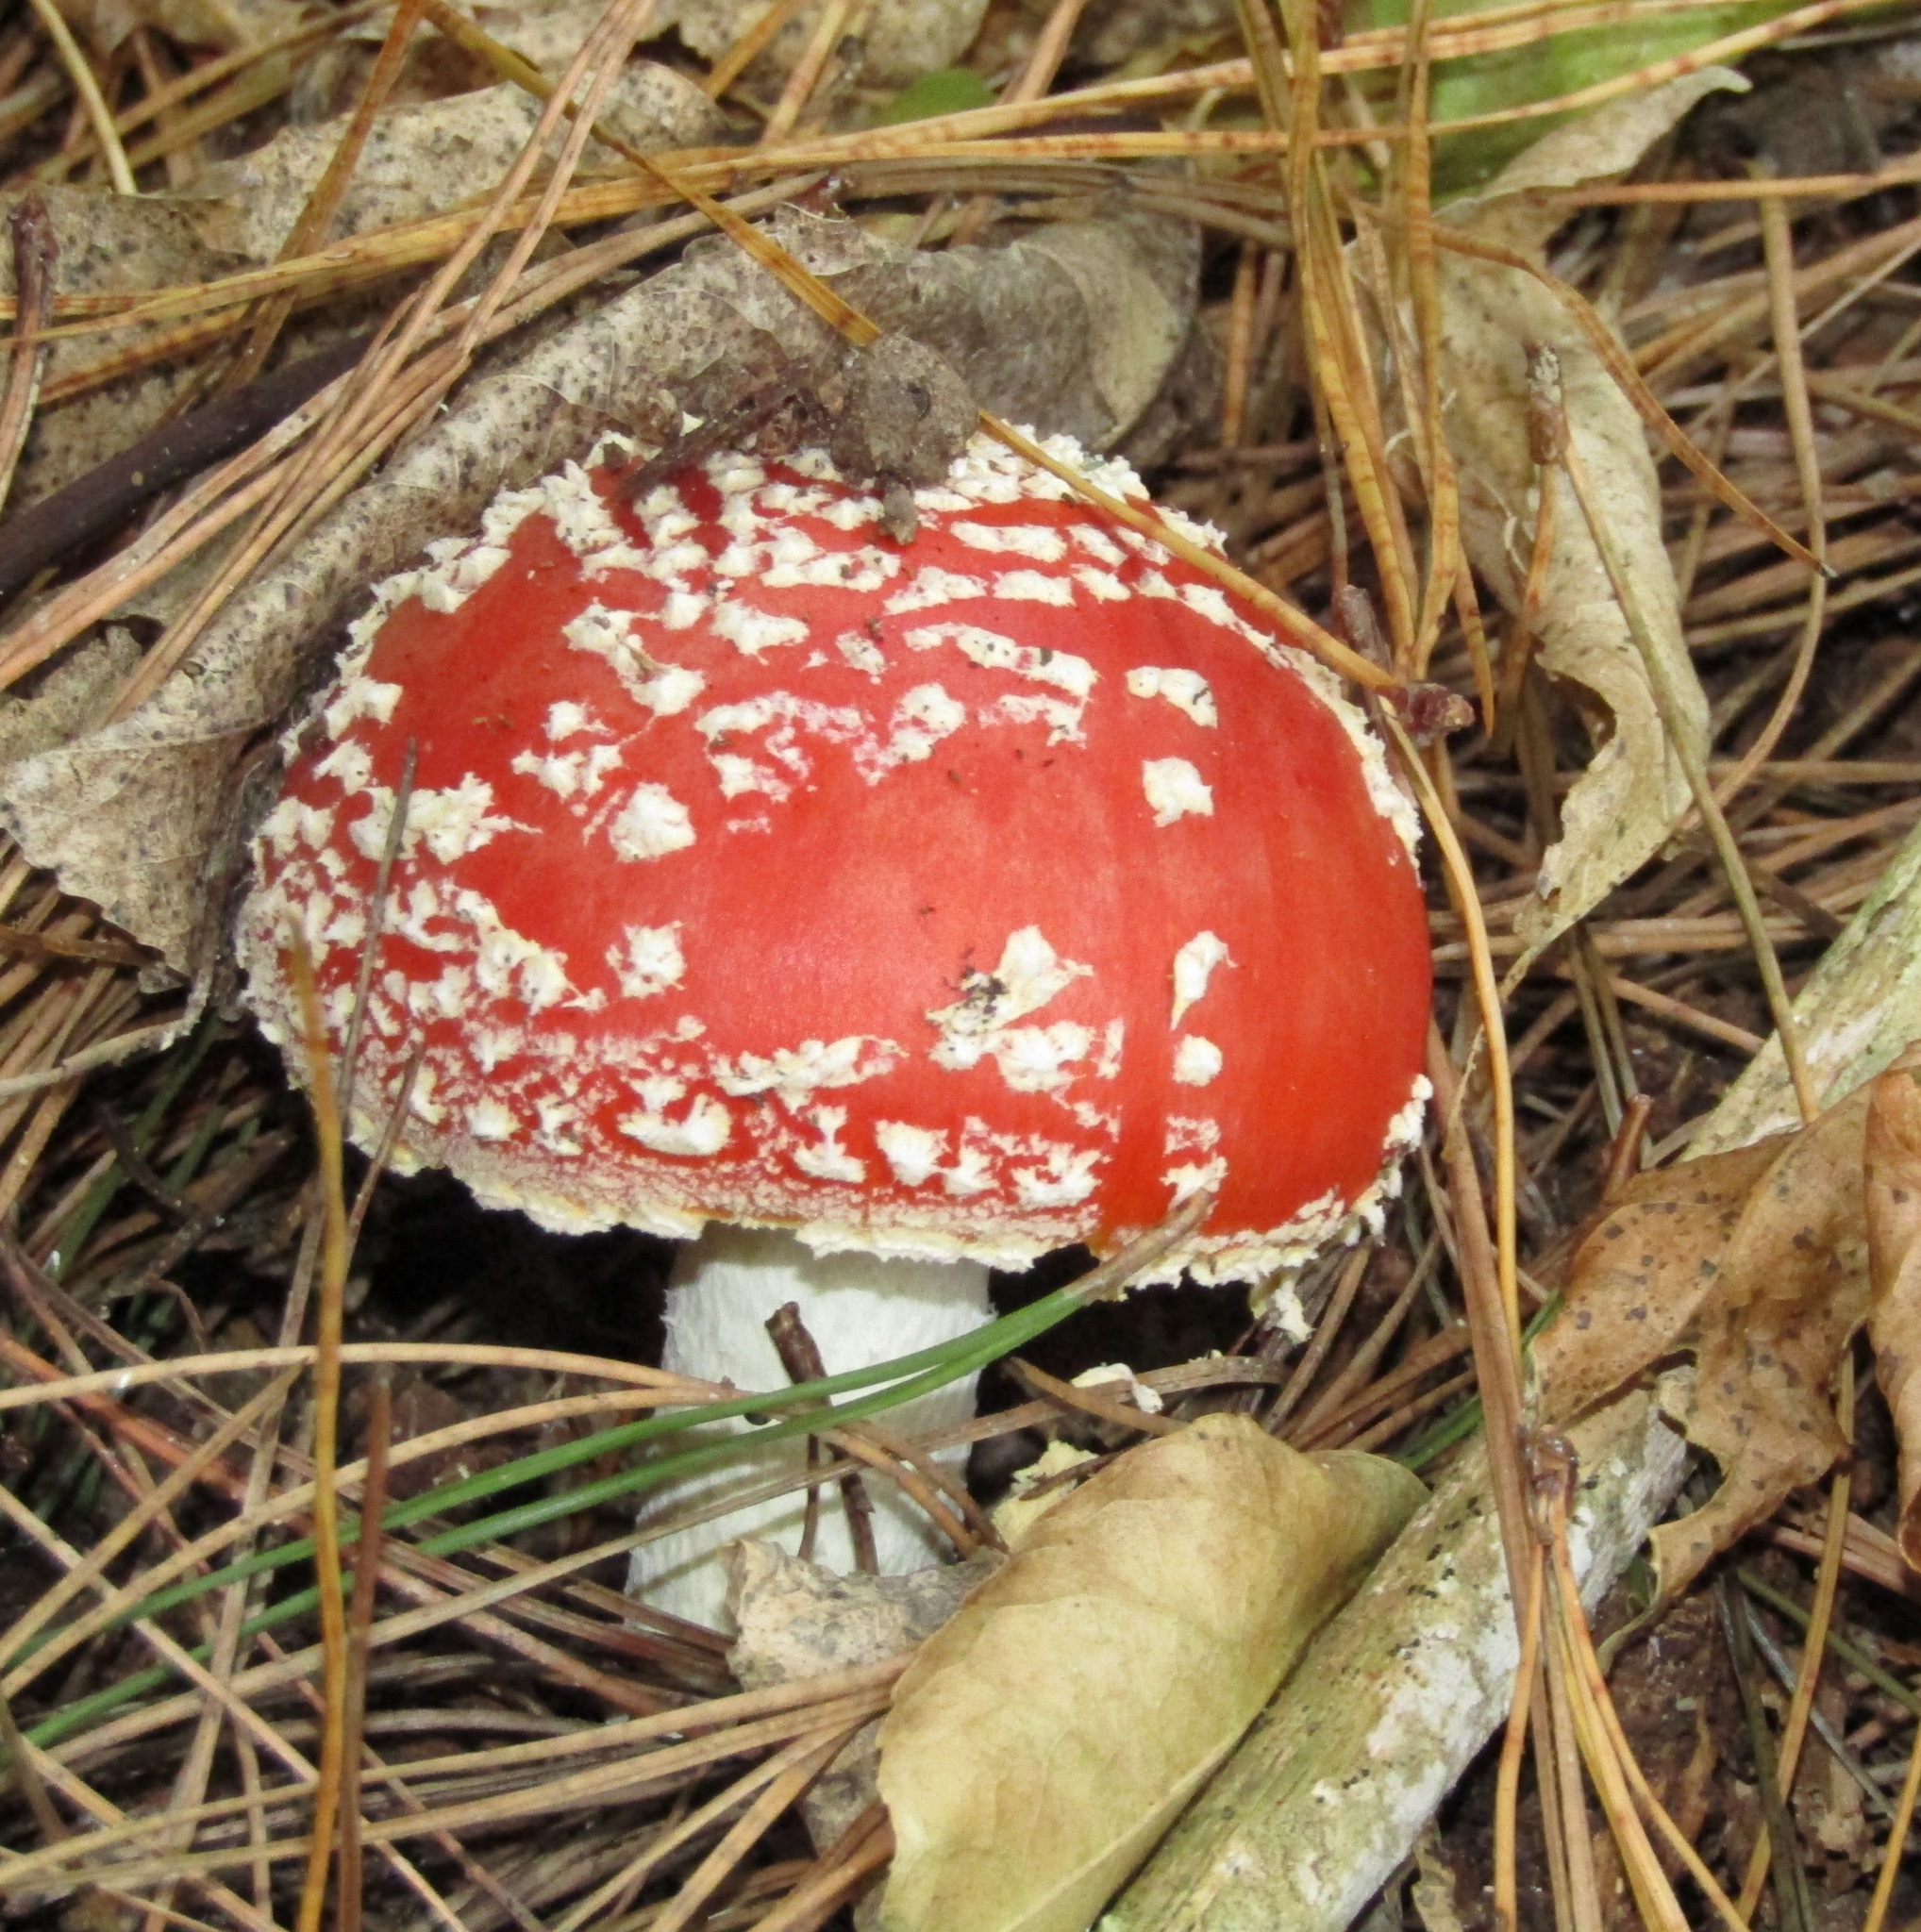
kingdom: Fungi
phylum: Basidiomycota
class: Agaricomycetes
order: Agaricales
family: Amanitaceae
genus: Amanita
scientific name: Amanita muscaria
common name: Fly agaric
